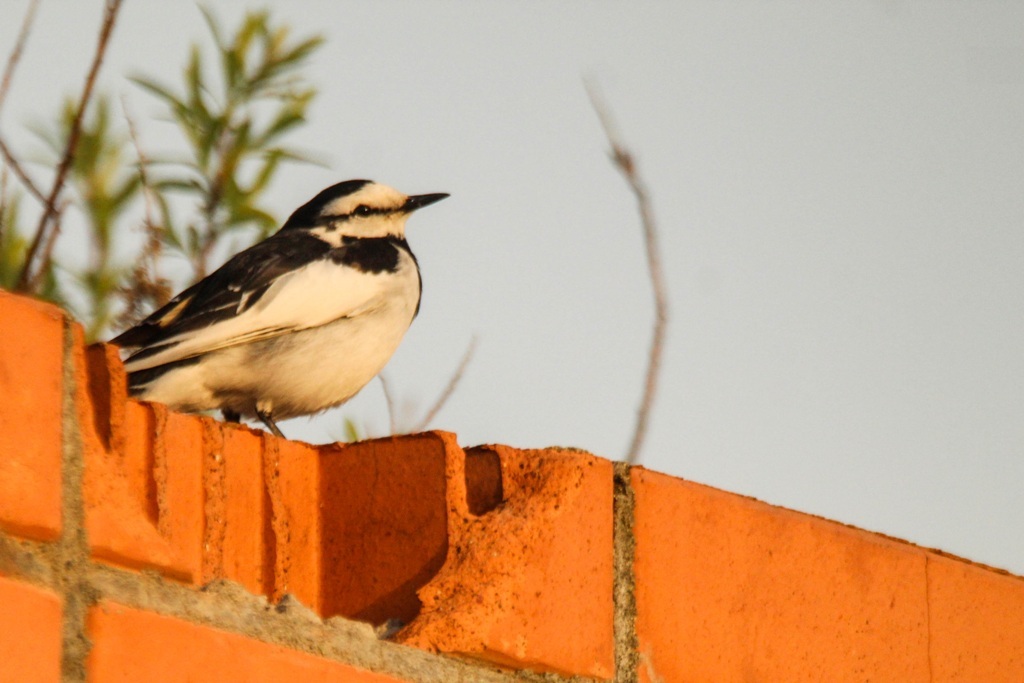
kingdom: Animalia
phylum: Chordata
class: Aves
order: Passeriformes
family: Motacillidae
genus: Motacilla
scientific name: Motacilla alba
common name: White wagtail
